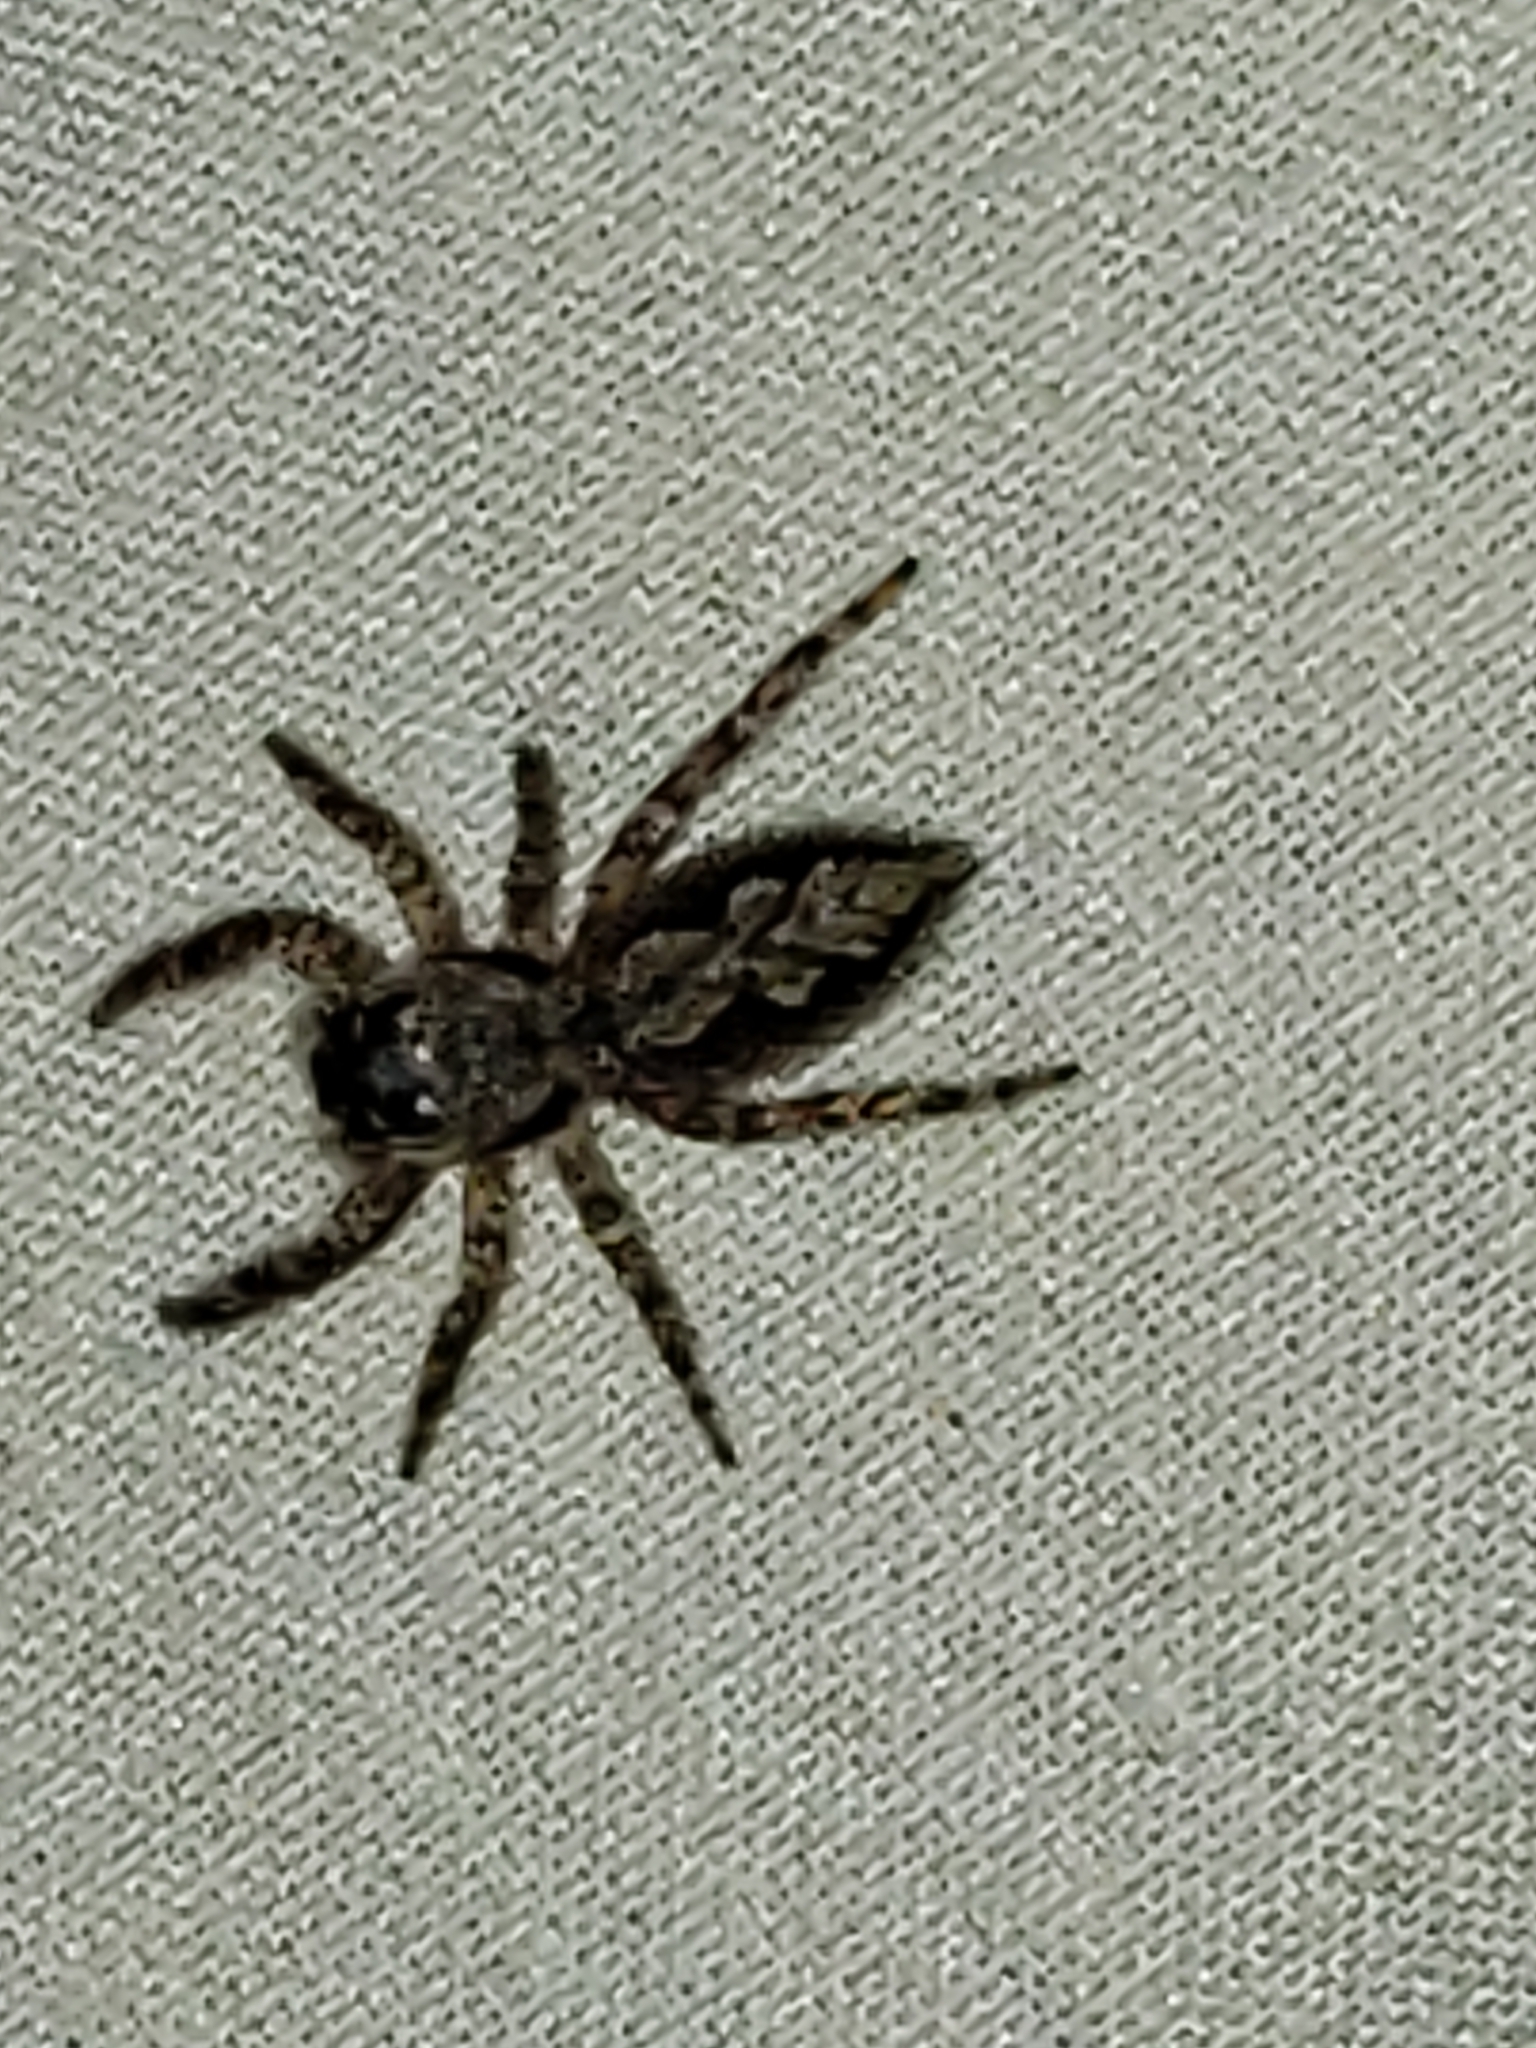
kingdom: Animalia
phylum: Arthropoda
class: Arachnida
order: Araneae
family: Salticidae
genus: Platycryptus
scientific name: Platycryptus undatus
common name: Tan jumping spider
